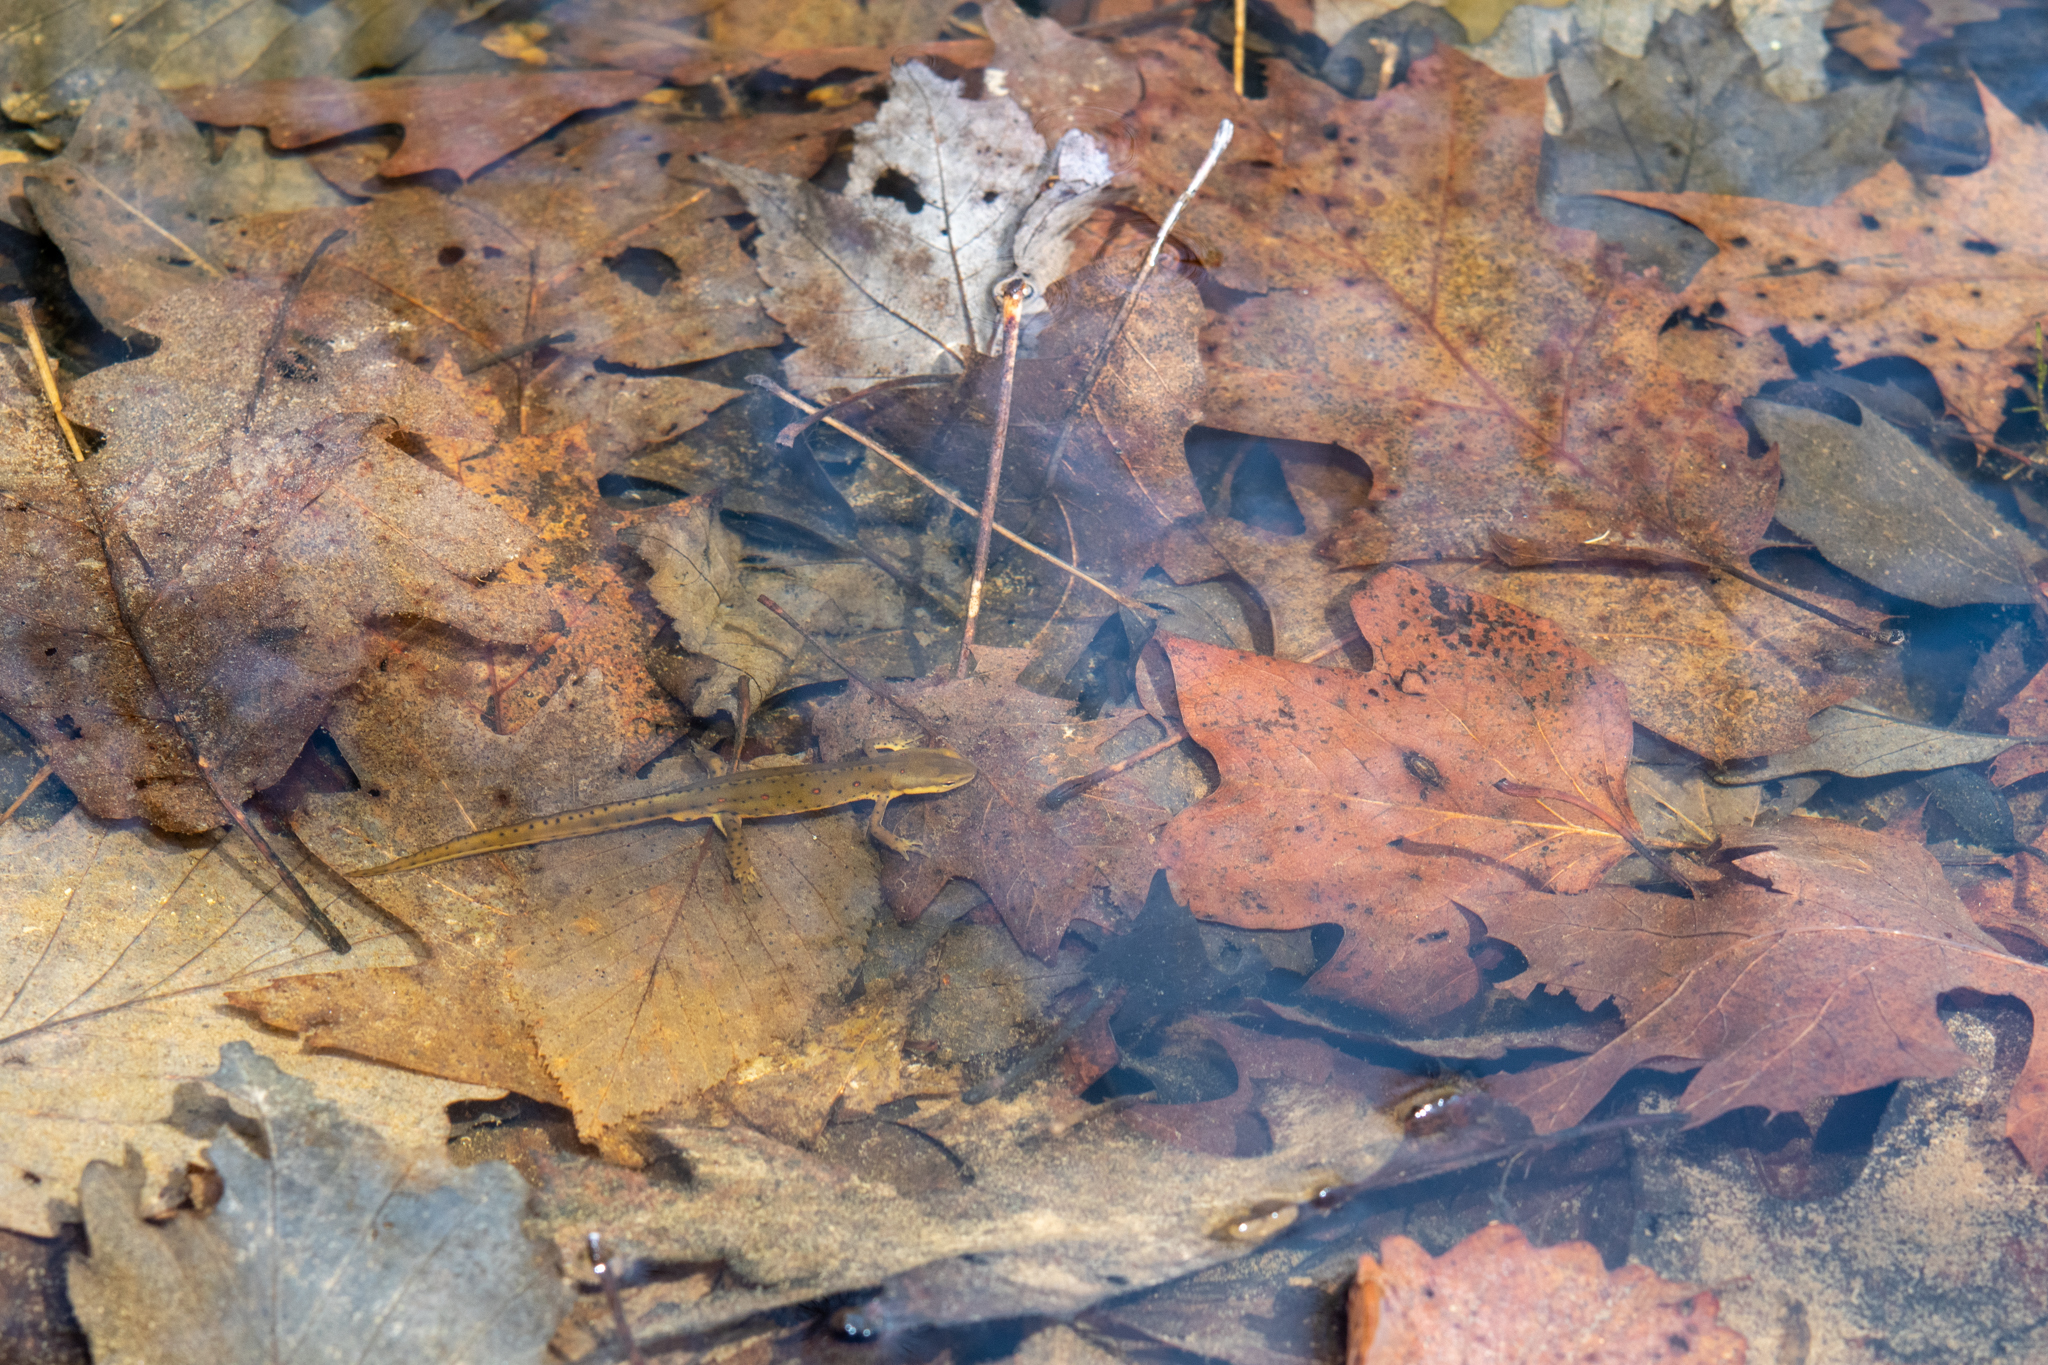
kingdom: Animalia
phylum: Chordata
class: Amphibia
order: Caudata
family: Salamandridae
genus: Notophthalmus
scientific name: Notophthalmus viridescens
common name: Eastern newt
